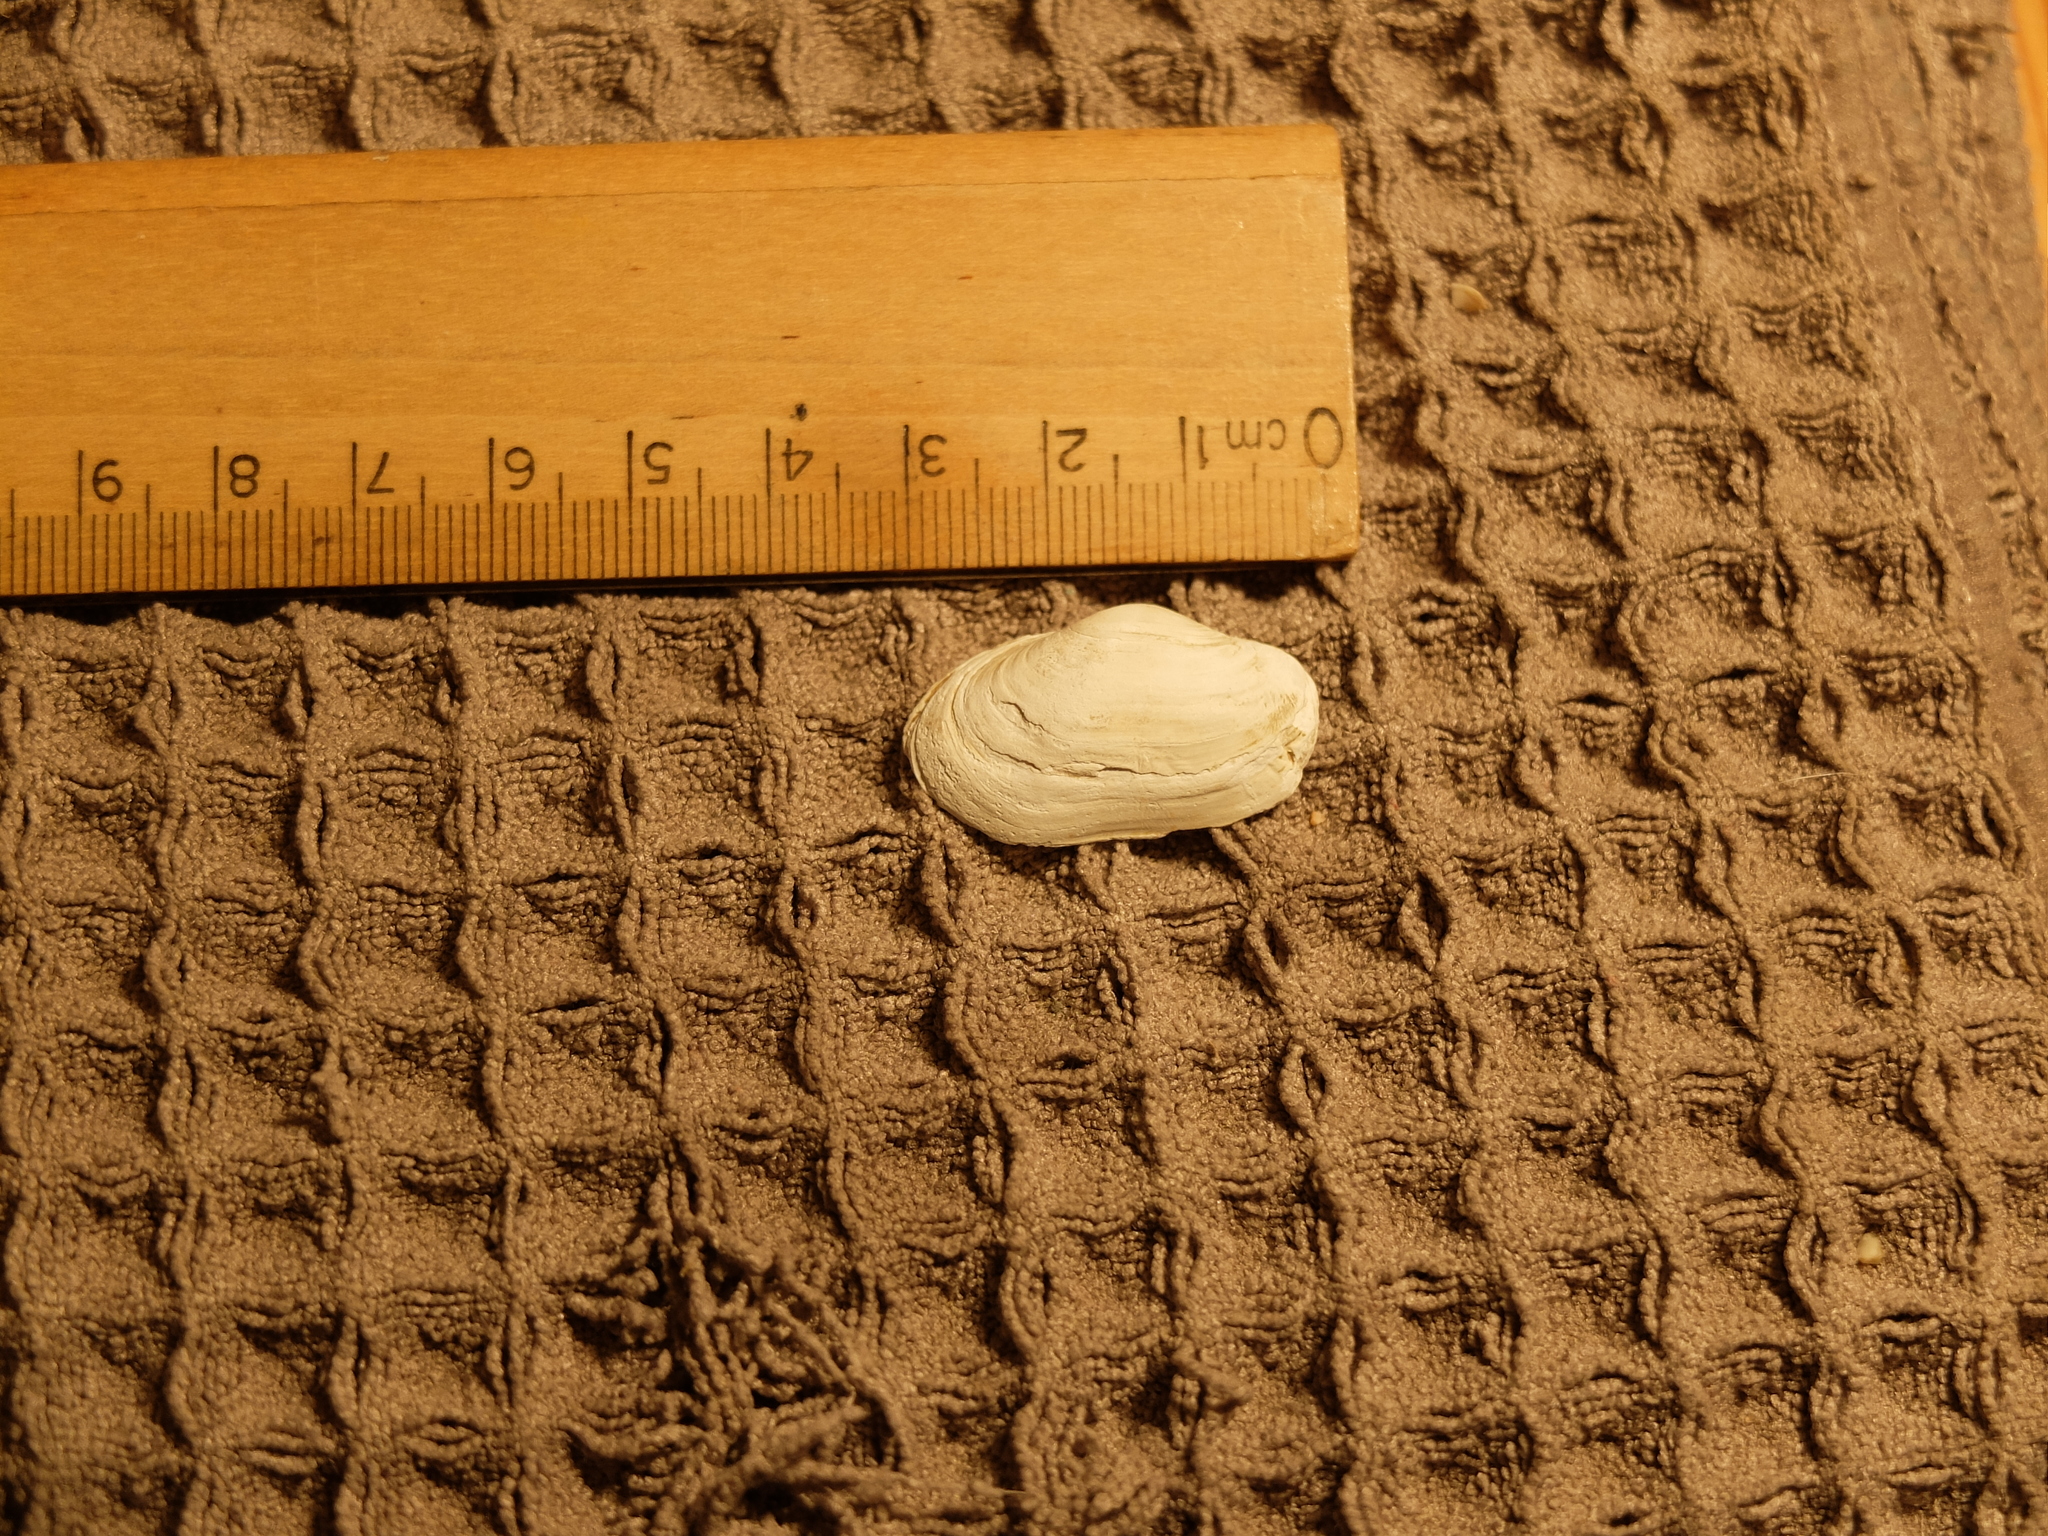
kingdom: Animalia
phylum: Mollusca
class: Bivalvia
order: Myida
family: Myidae
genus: Mya
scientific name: Mya arenaria
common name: Soft-shelled clam
